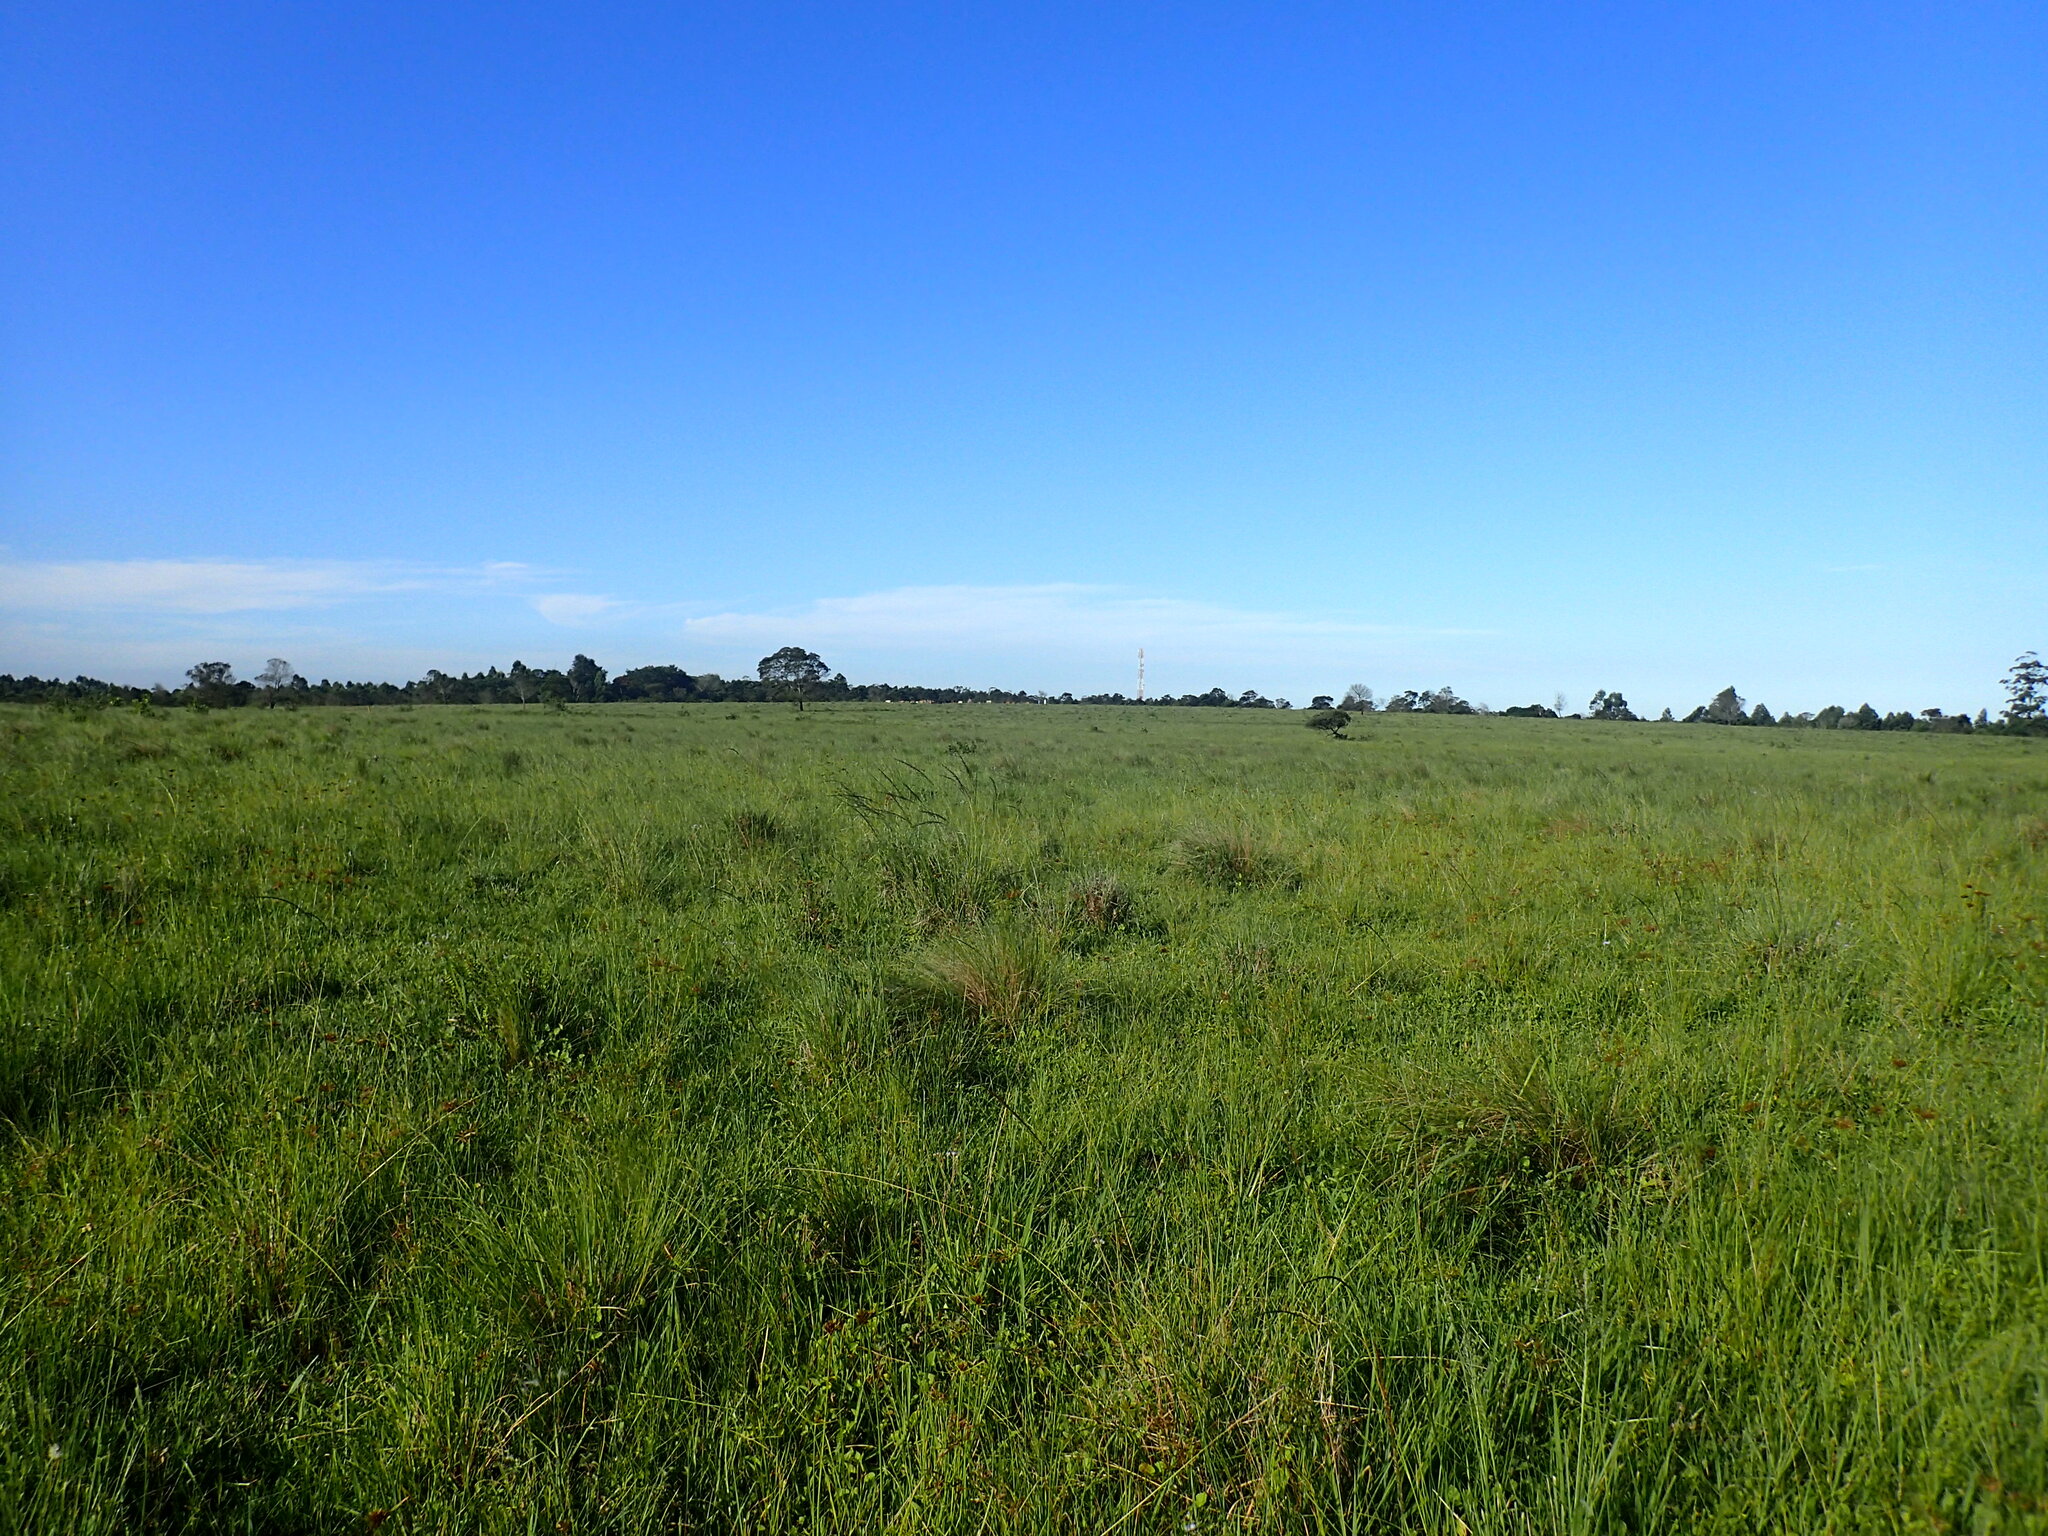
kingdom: Plantae
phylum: Tracheophyta
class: Liliopsida
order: Poales
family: Cyperaceae
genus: Cyperus
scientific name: Cyperus polystachyos
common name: Bunchy flat sedge
